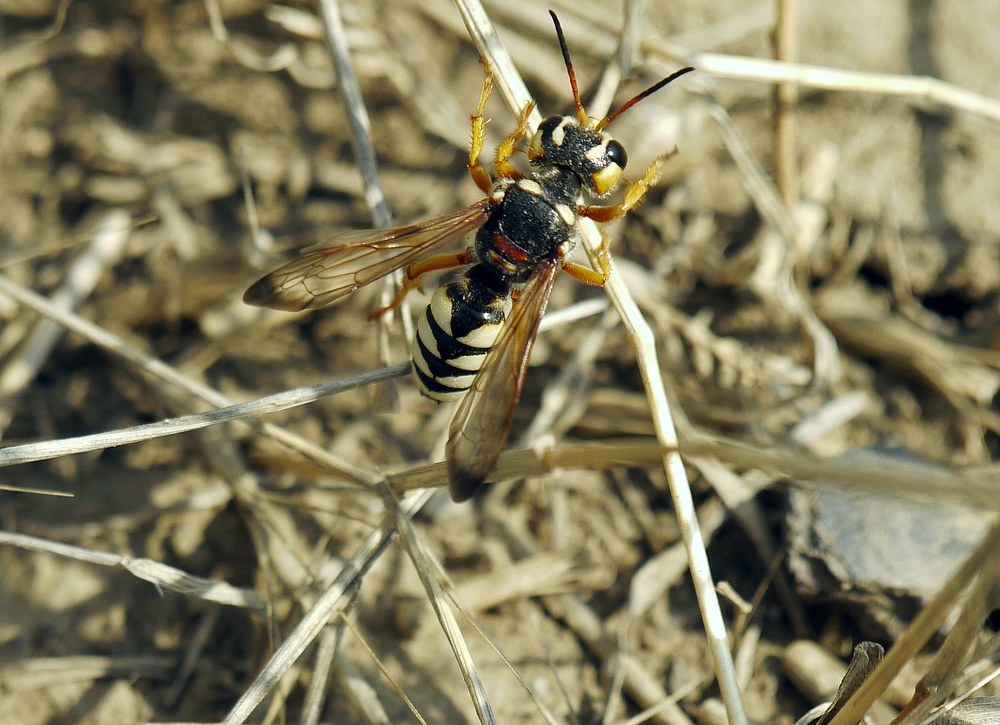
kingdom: Animalia
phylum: Arthropoda
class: Insecta
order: Hymenoptera
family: Crabronidae
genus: Cerceris
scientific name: Cerceris tuberculata
